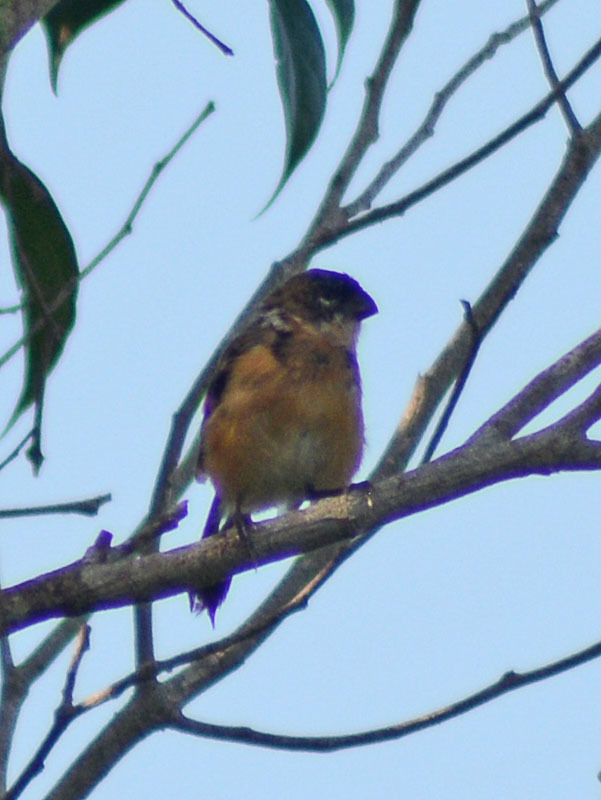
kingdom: Animalia
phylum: Chordata
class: Aves
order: Passeriformes
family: Thraupidae
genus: Sporophila
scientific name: Sporophila morelleti
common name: Morelet's seedeater
